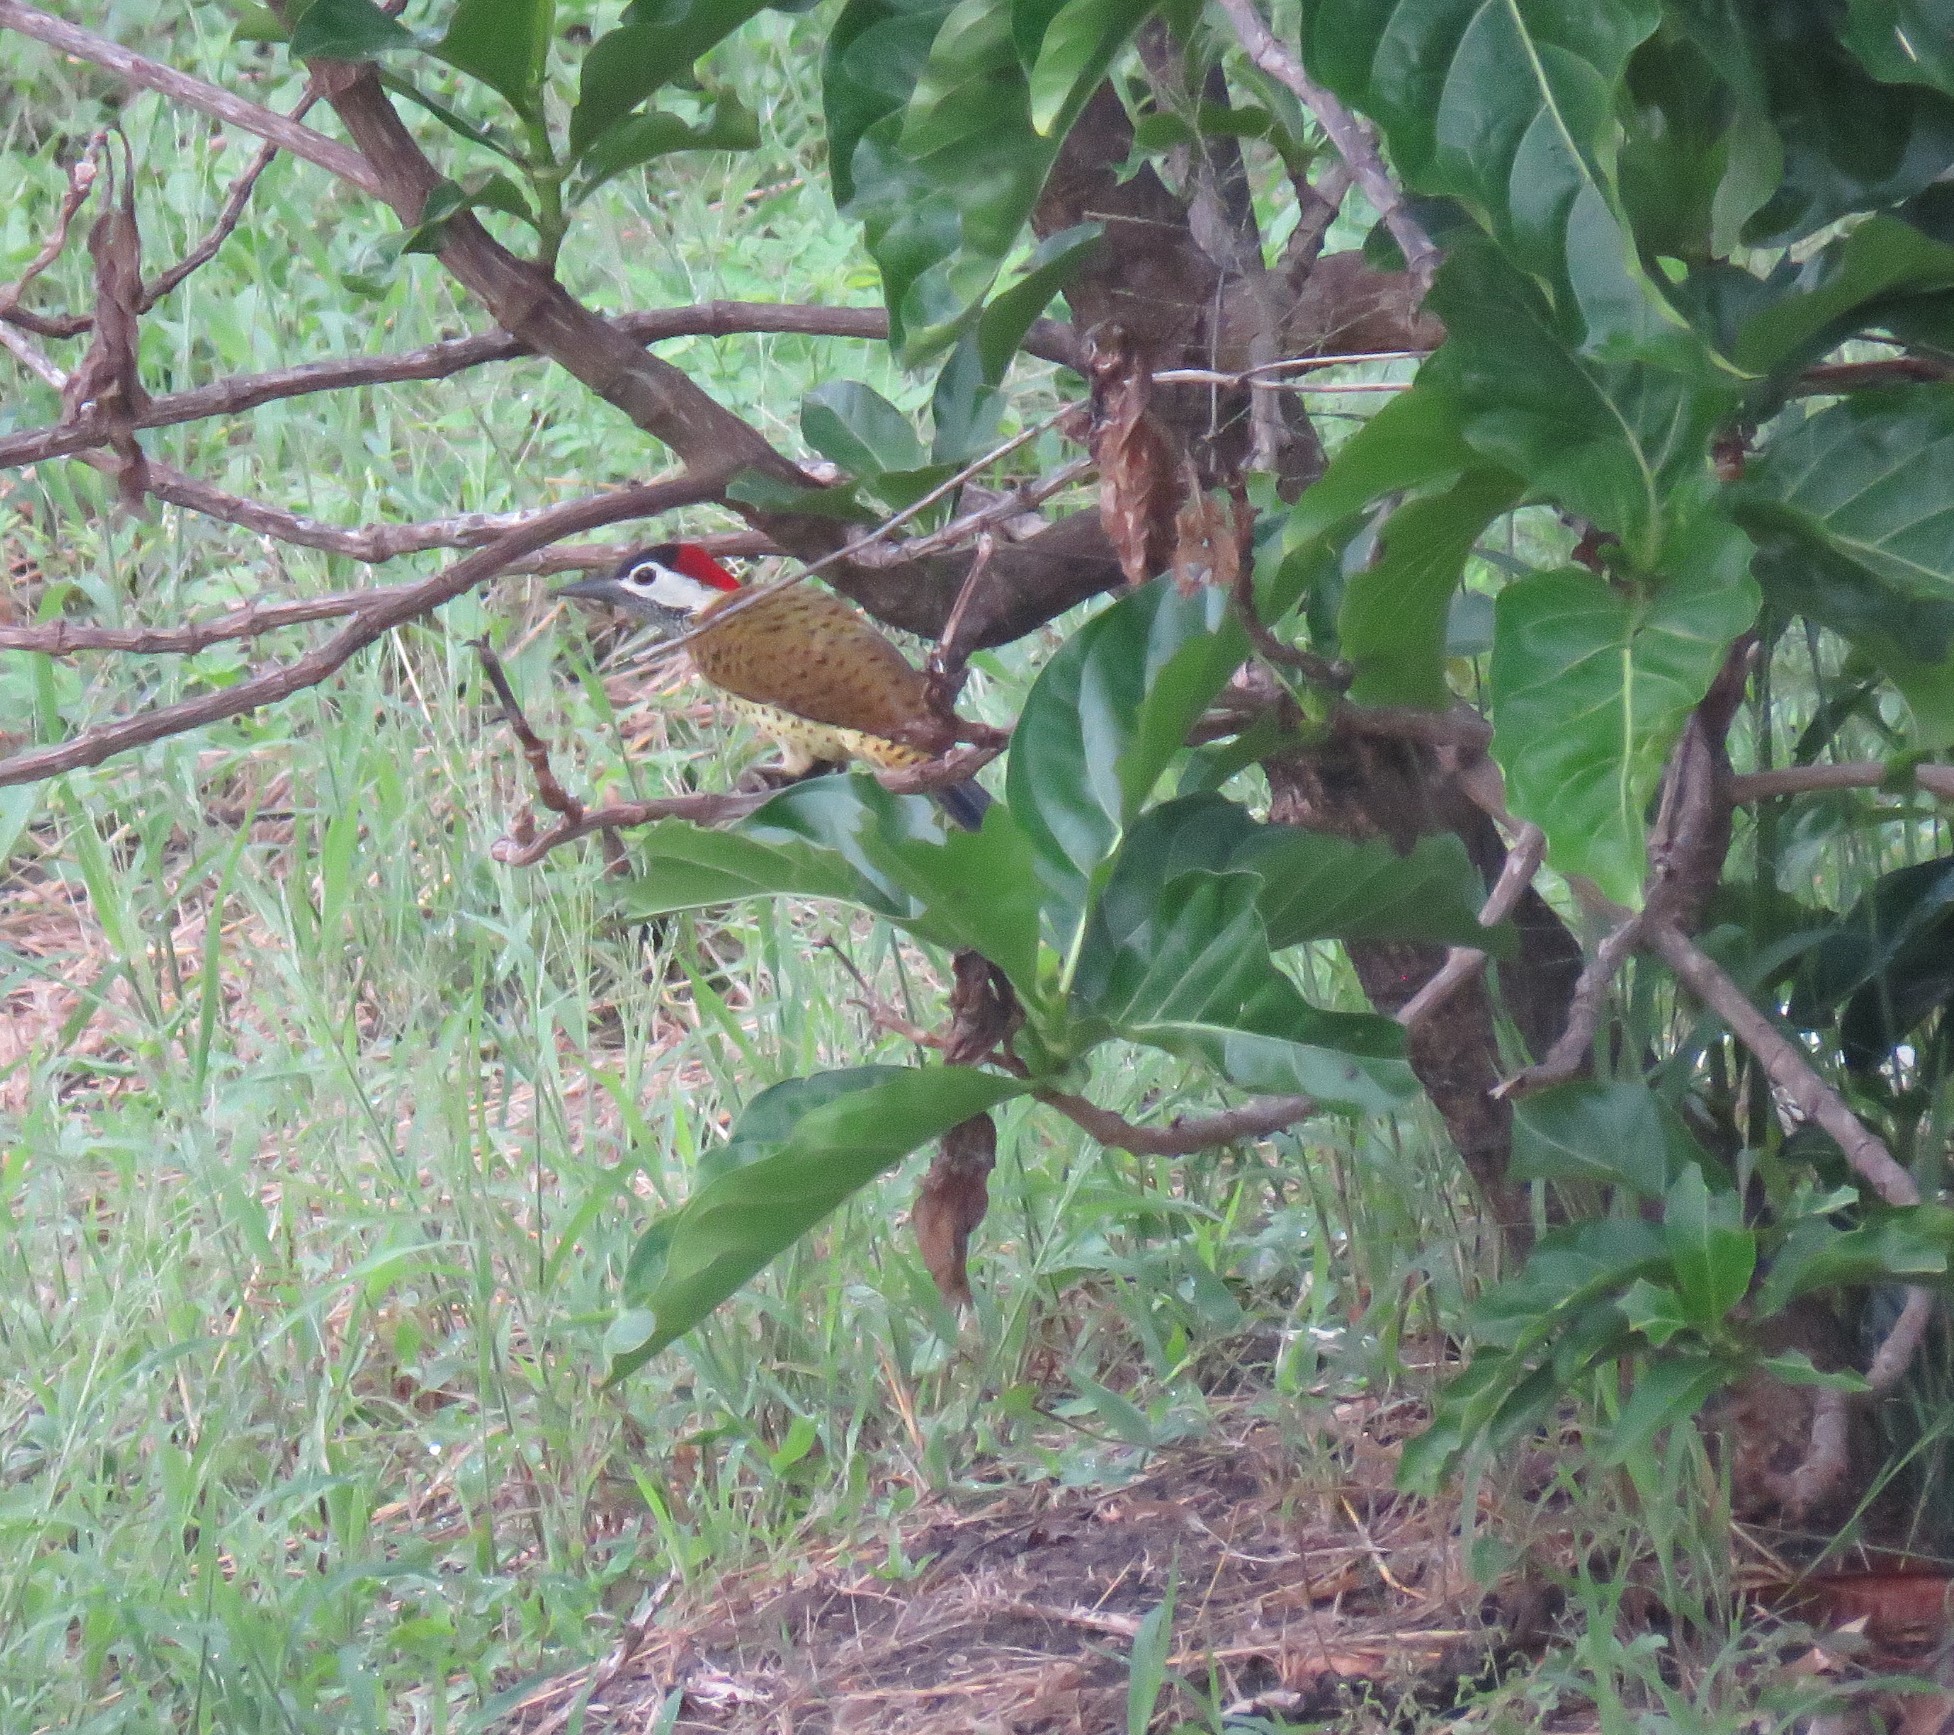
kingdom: Animalia
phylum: Chordata
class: Aves
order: Piciformes
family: Picidae
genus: Colaptes
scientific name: Colaptes punctigula
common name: Spot-breasted woodpecker
